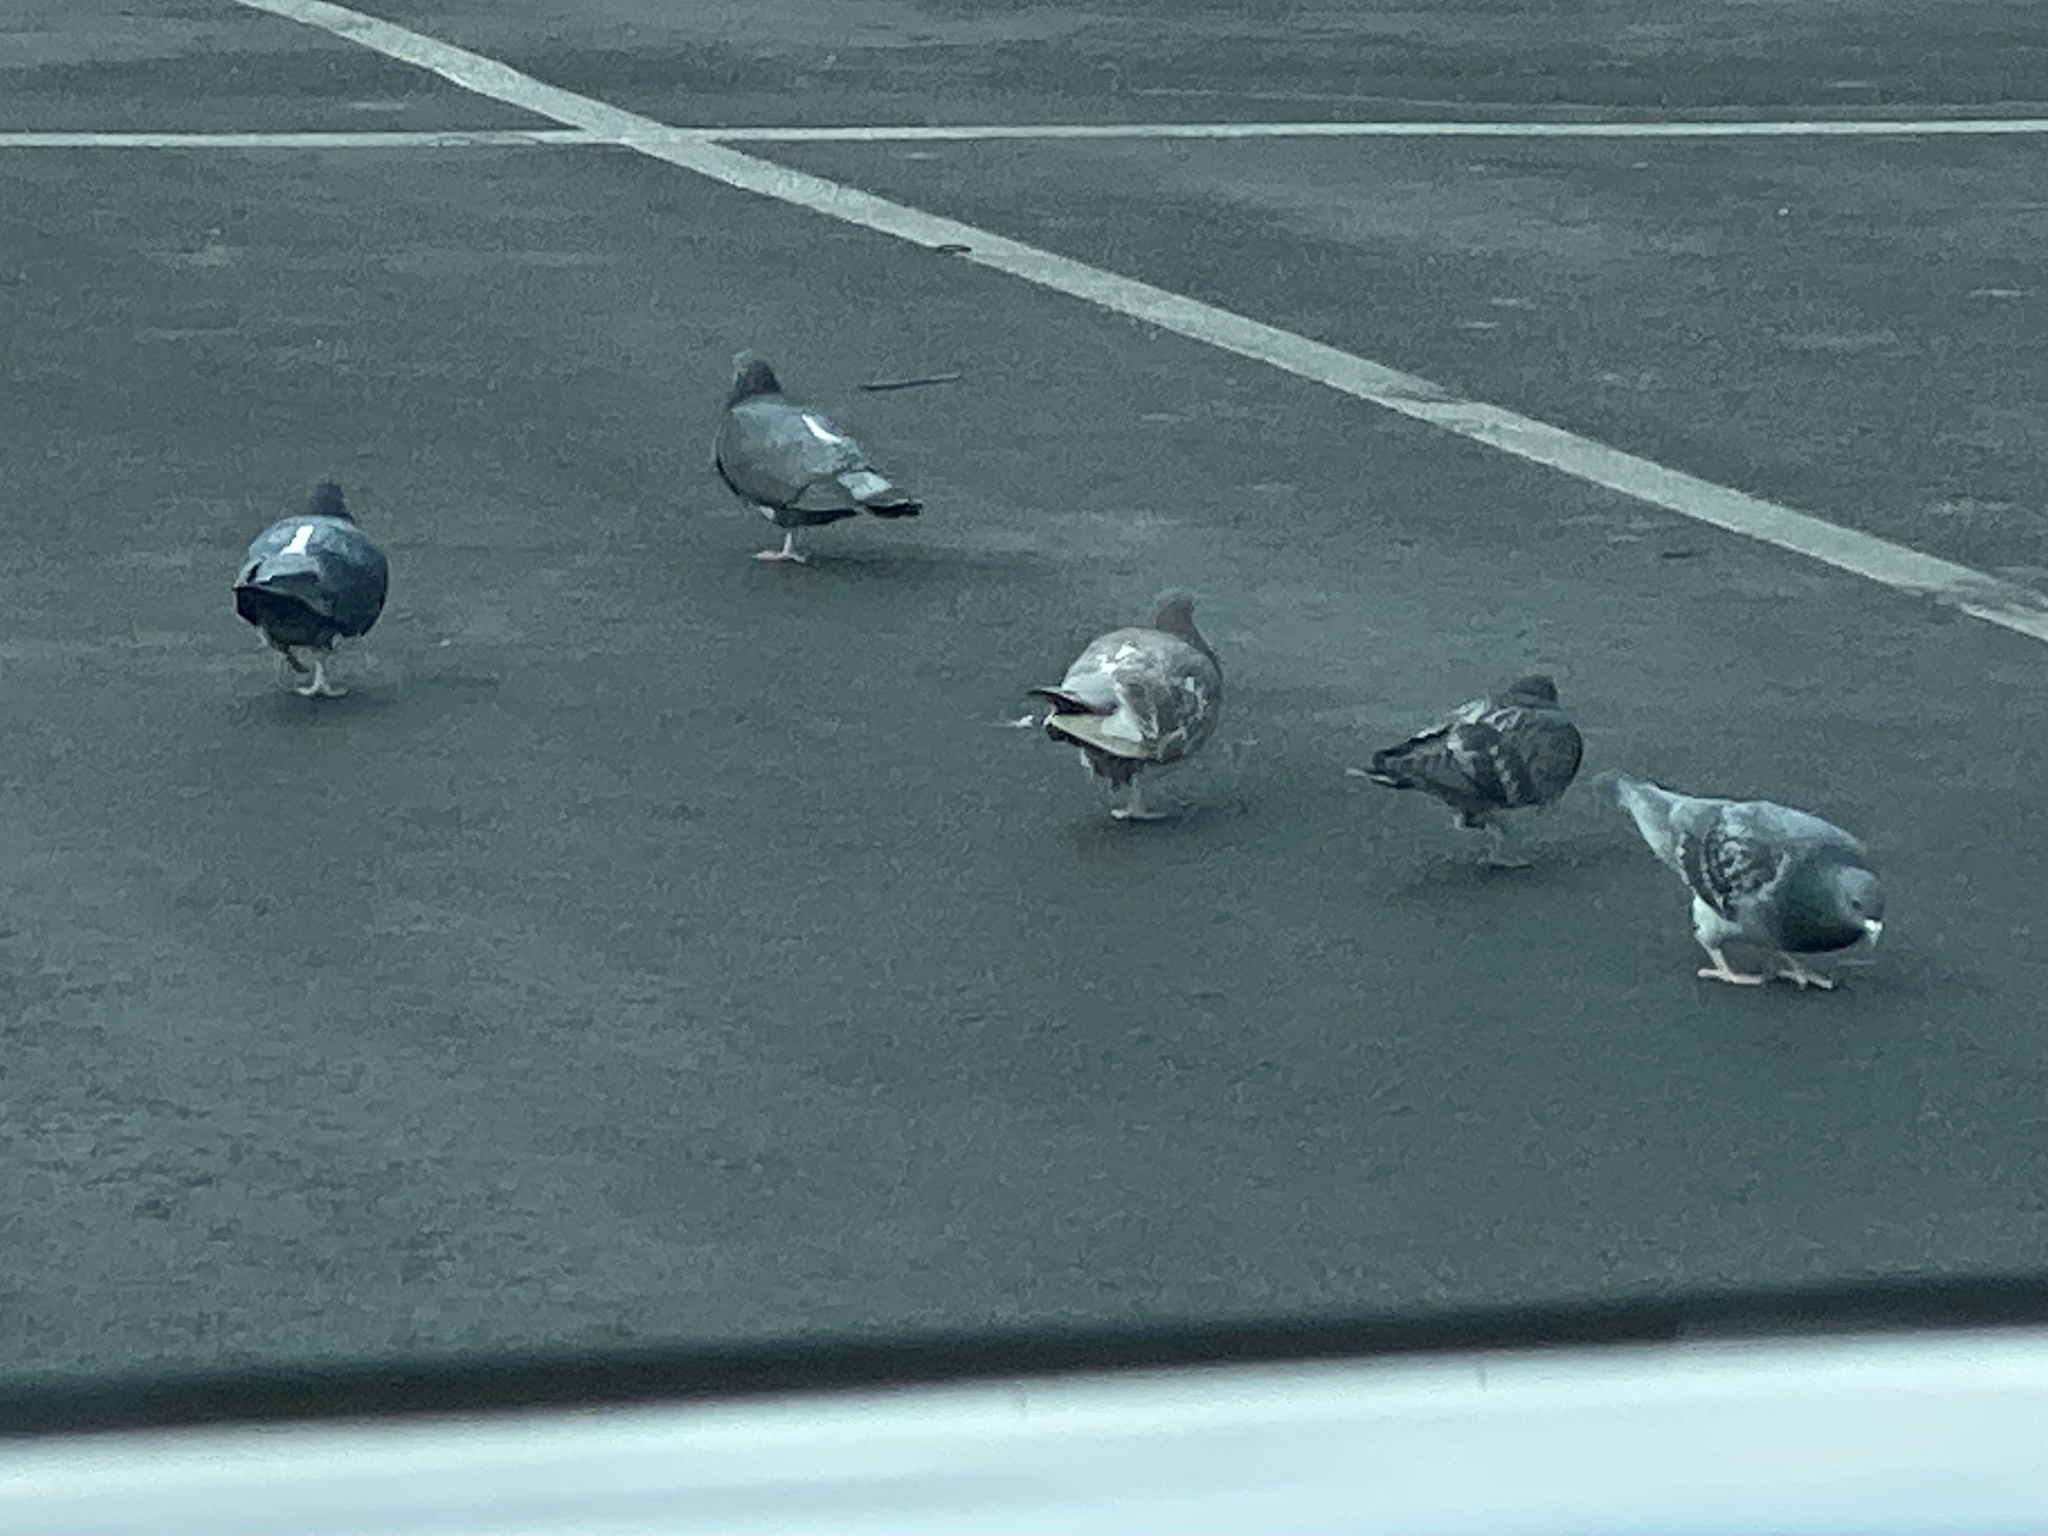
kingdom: Animalia
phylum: Chordata
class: Aves
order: Columbiformes
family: Columbidae
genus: Columba
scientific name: Columba livia
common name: Rock pigeon
